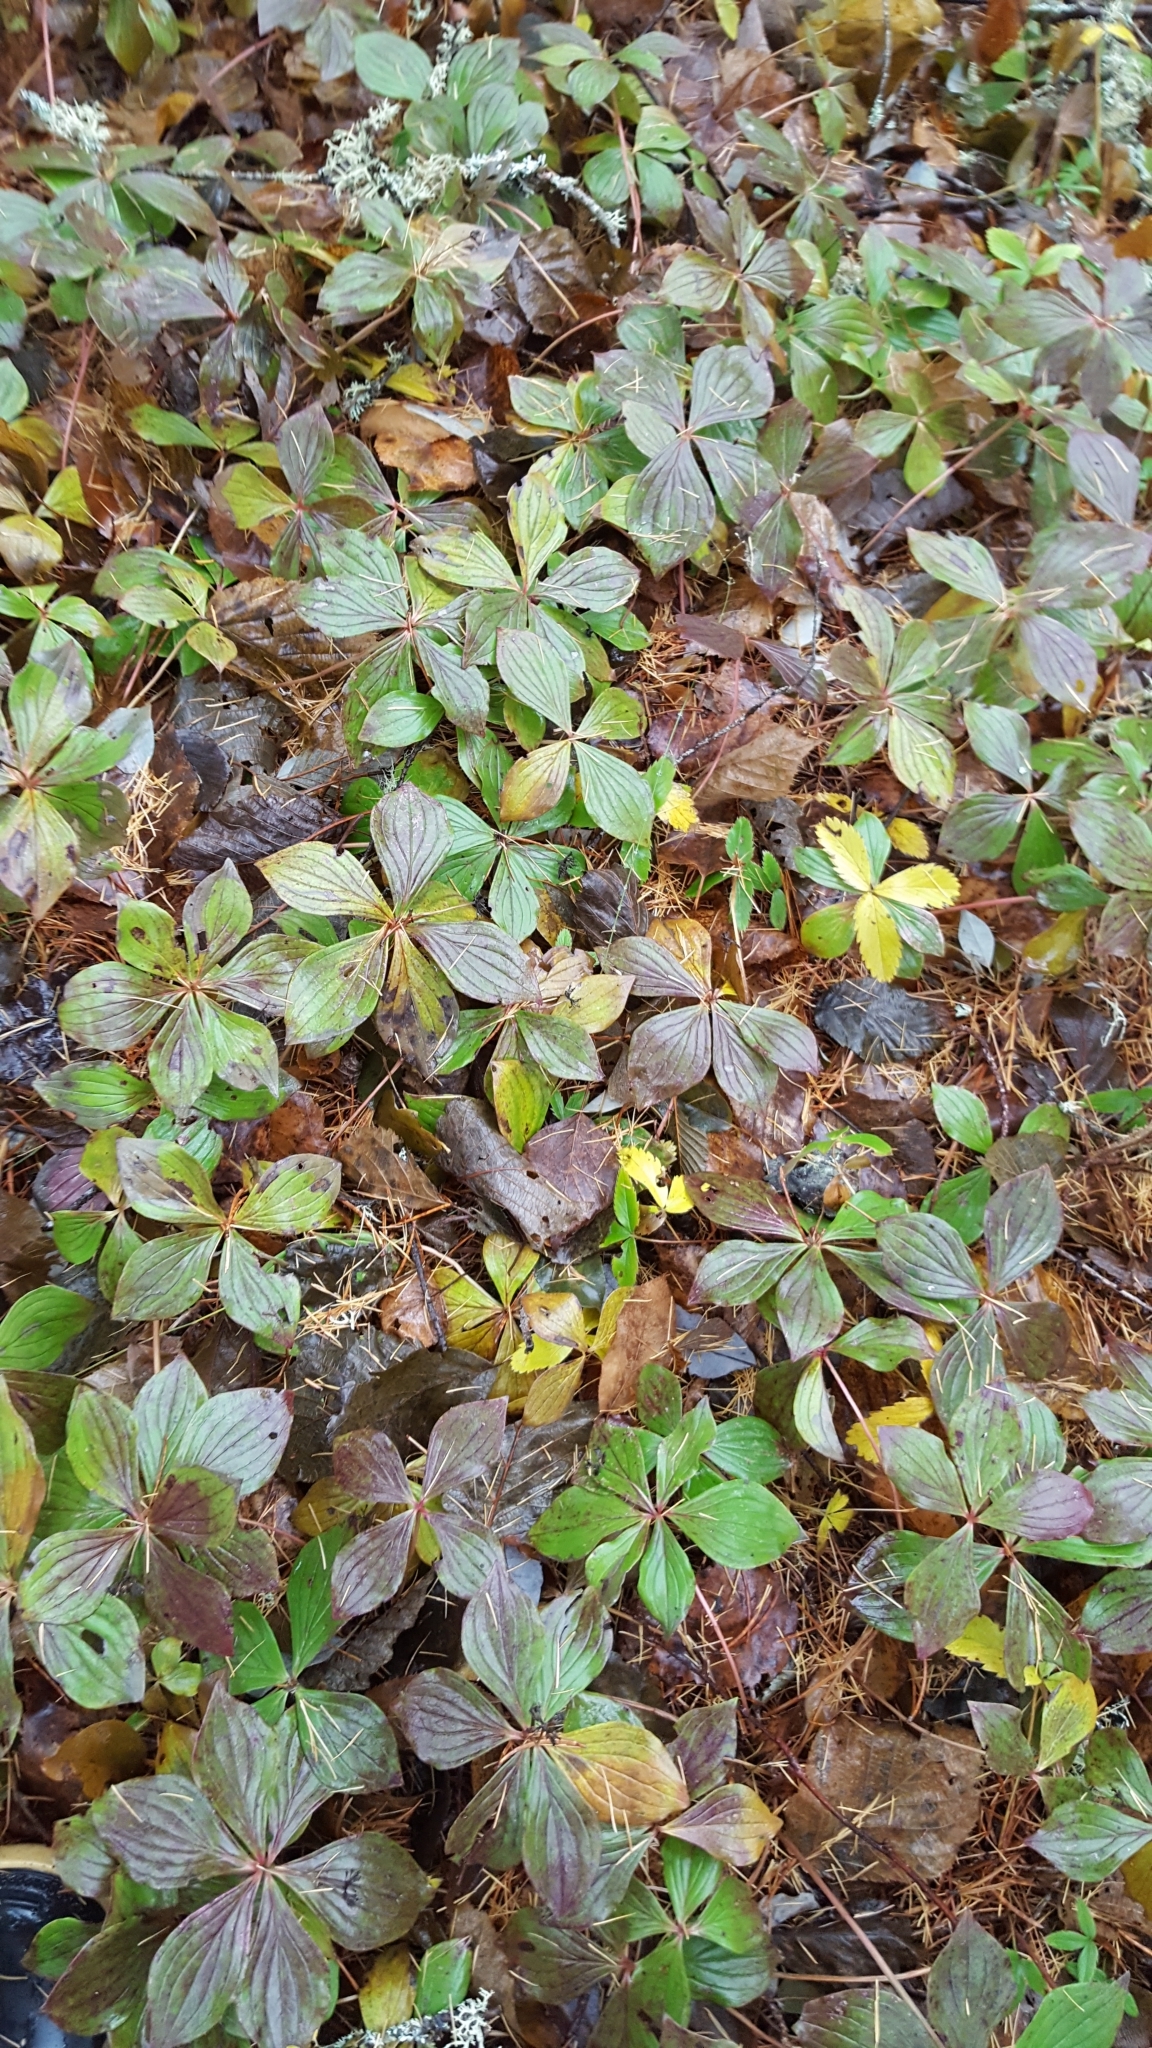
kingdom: Plantae
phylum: Tracheophyta
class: Magnoliopsida
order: Cornales
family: Cornaceae
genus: Cornus
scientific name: Cornus canadensis
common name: Creeping dogwood
